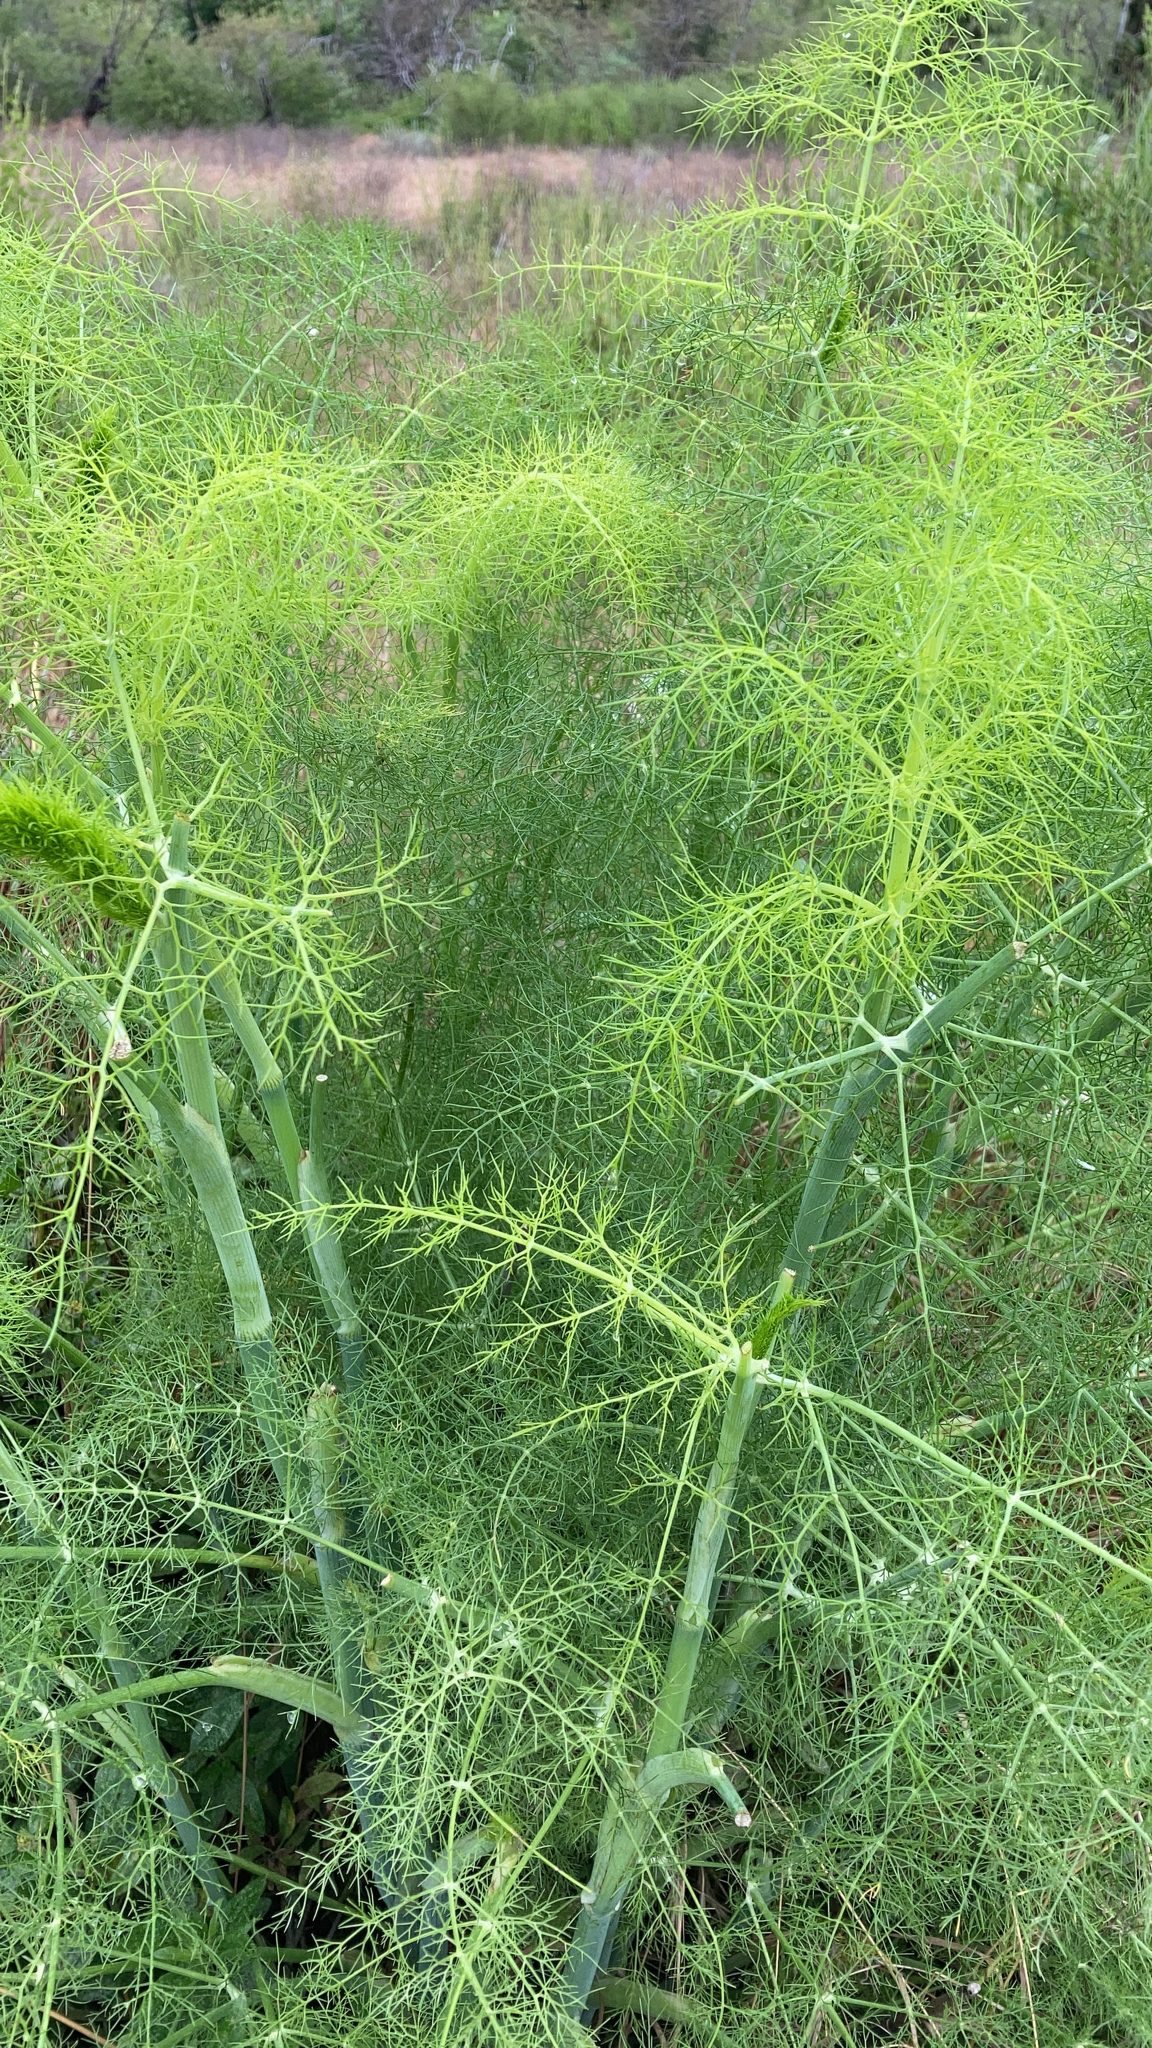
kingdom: Plantae
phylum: Tracheophyta
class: Magnoliopsida
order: Apiales
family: Apiaceae
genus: Foeniculum
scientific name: Foeniculum vulgare
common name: Fennel
